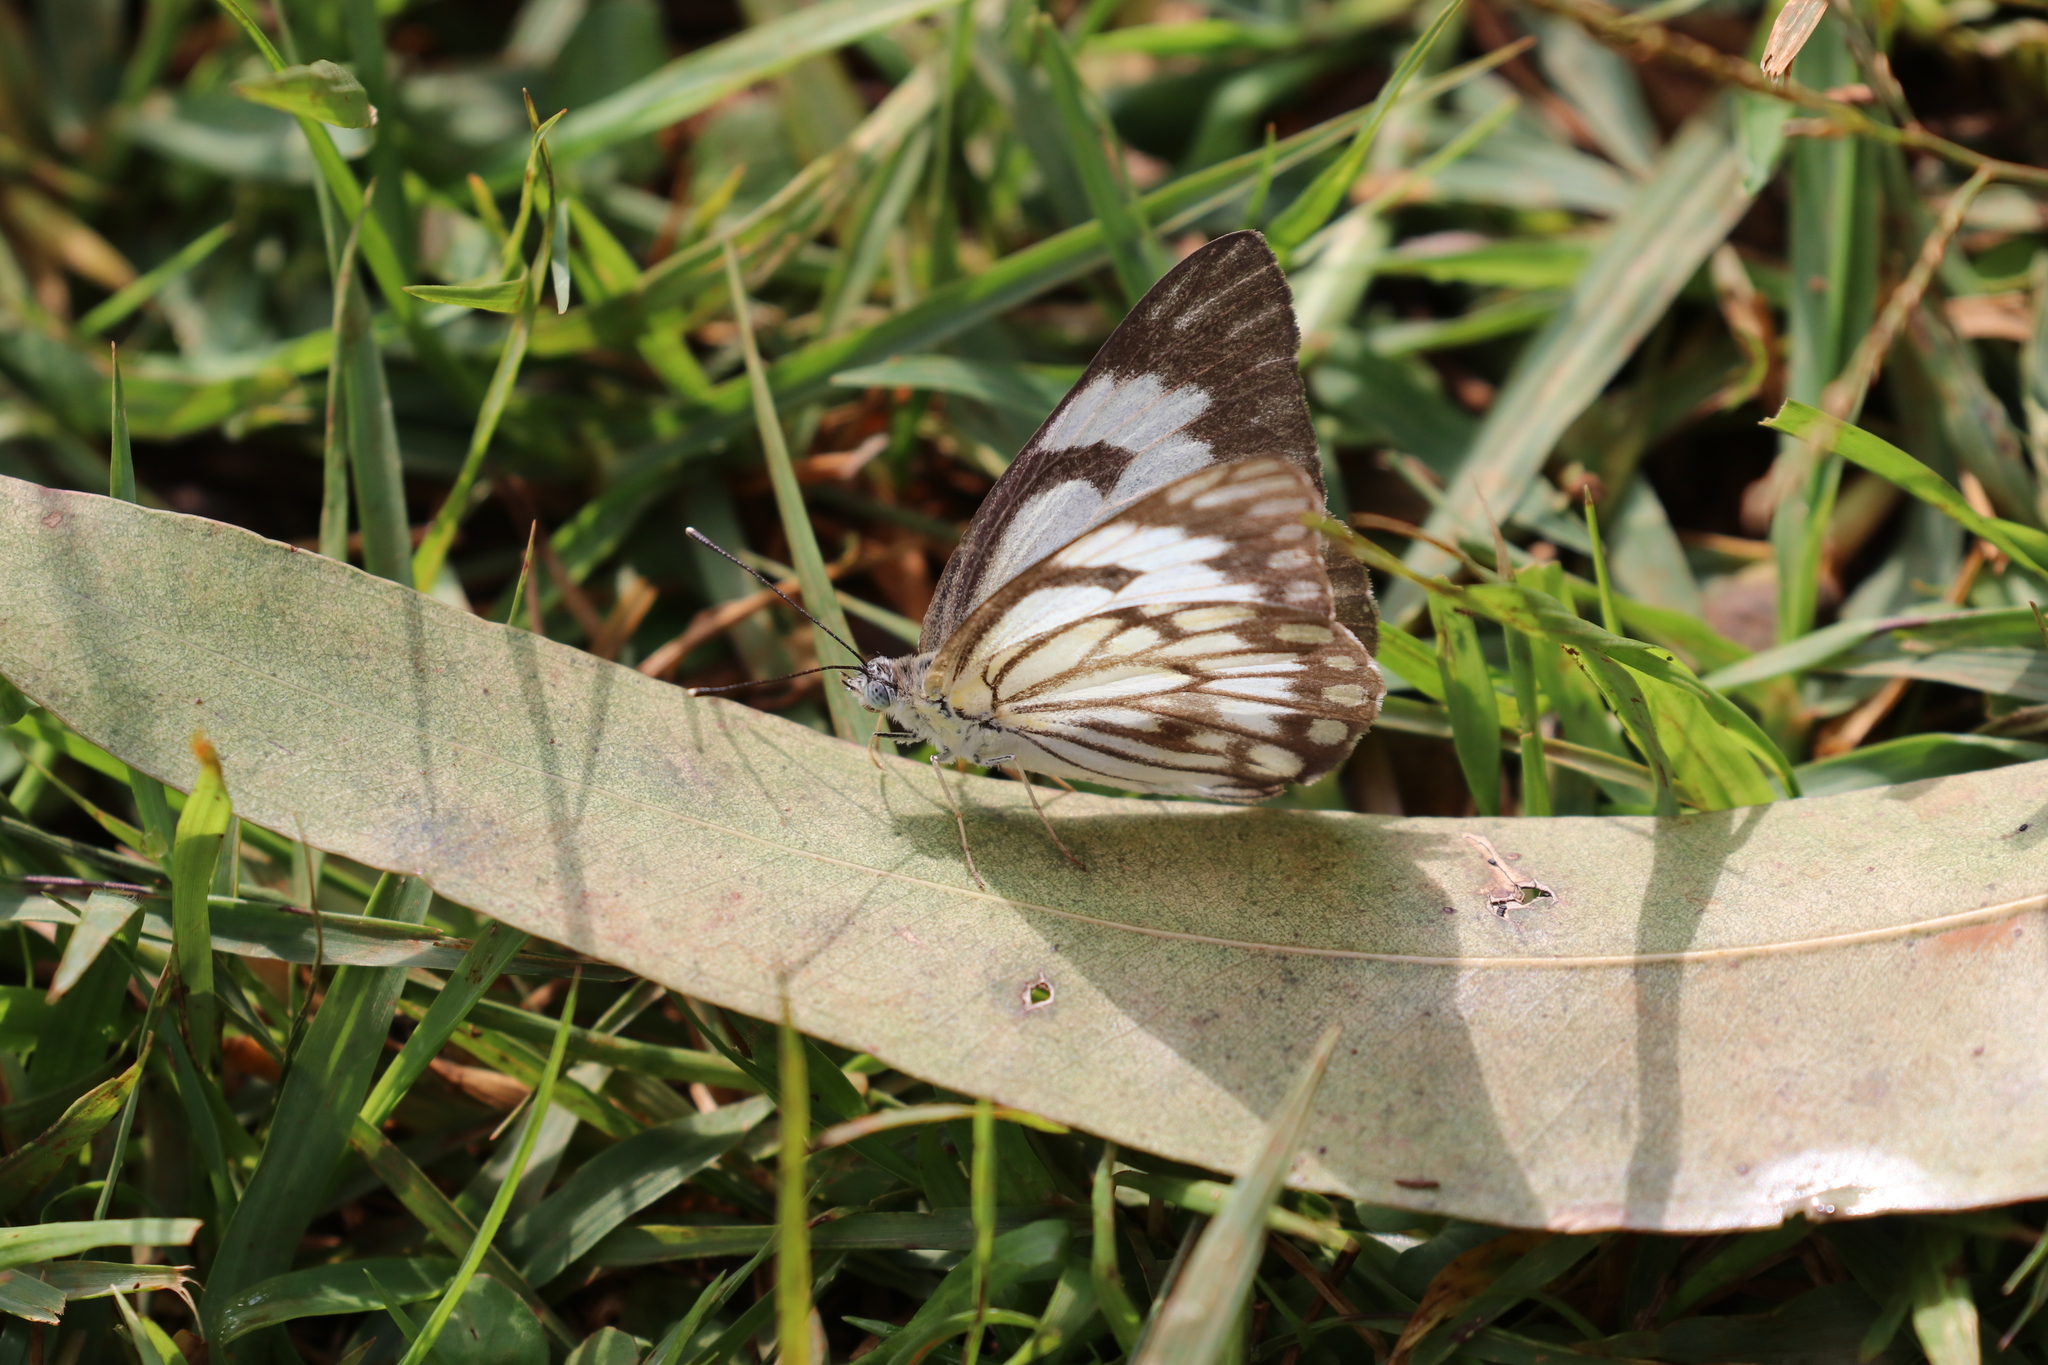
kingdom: Animalia
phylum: Arthropoda
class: Insecta
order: Lepidoptera
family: Pieridae
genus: Belenois
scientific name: Belenois aurota
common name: Brown-veined white
